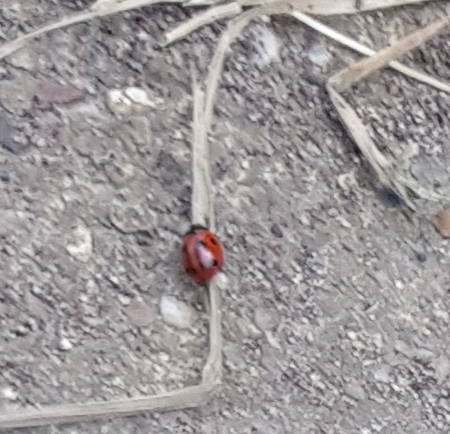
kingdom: Animalia
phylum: Arthropoda
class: Insecta
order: Coleoptera
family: Coccinellidae
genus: Coccinella
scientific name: Coccinella septempunctata
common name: Sevenspotted lady beetle
